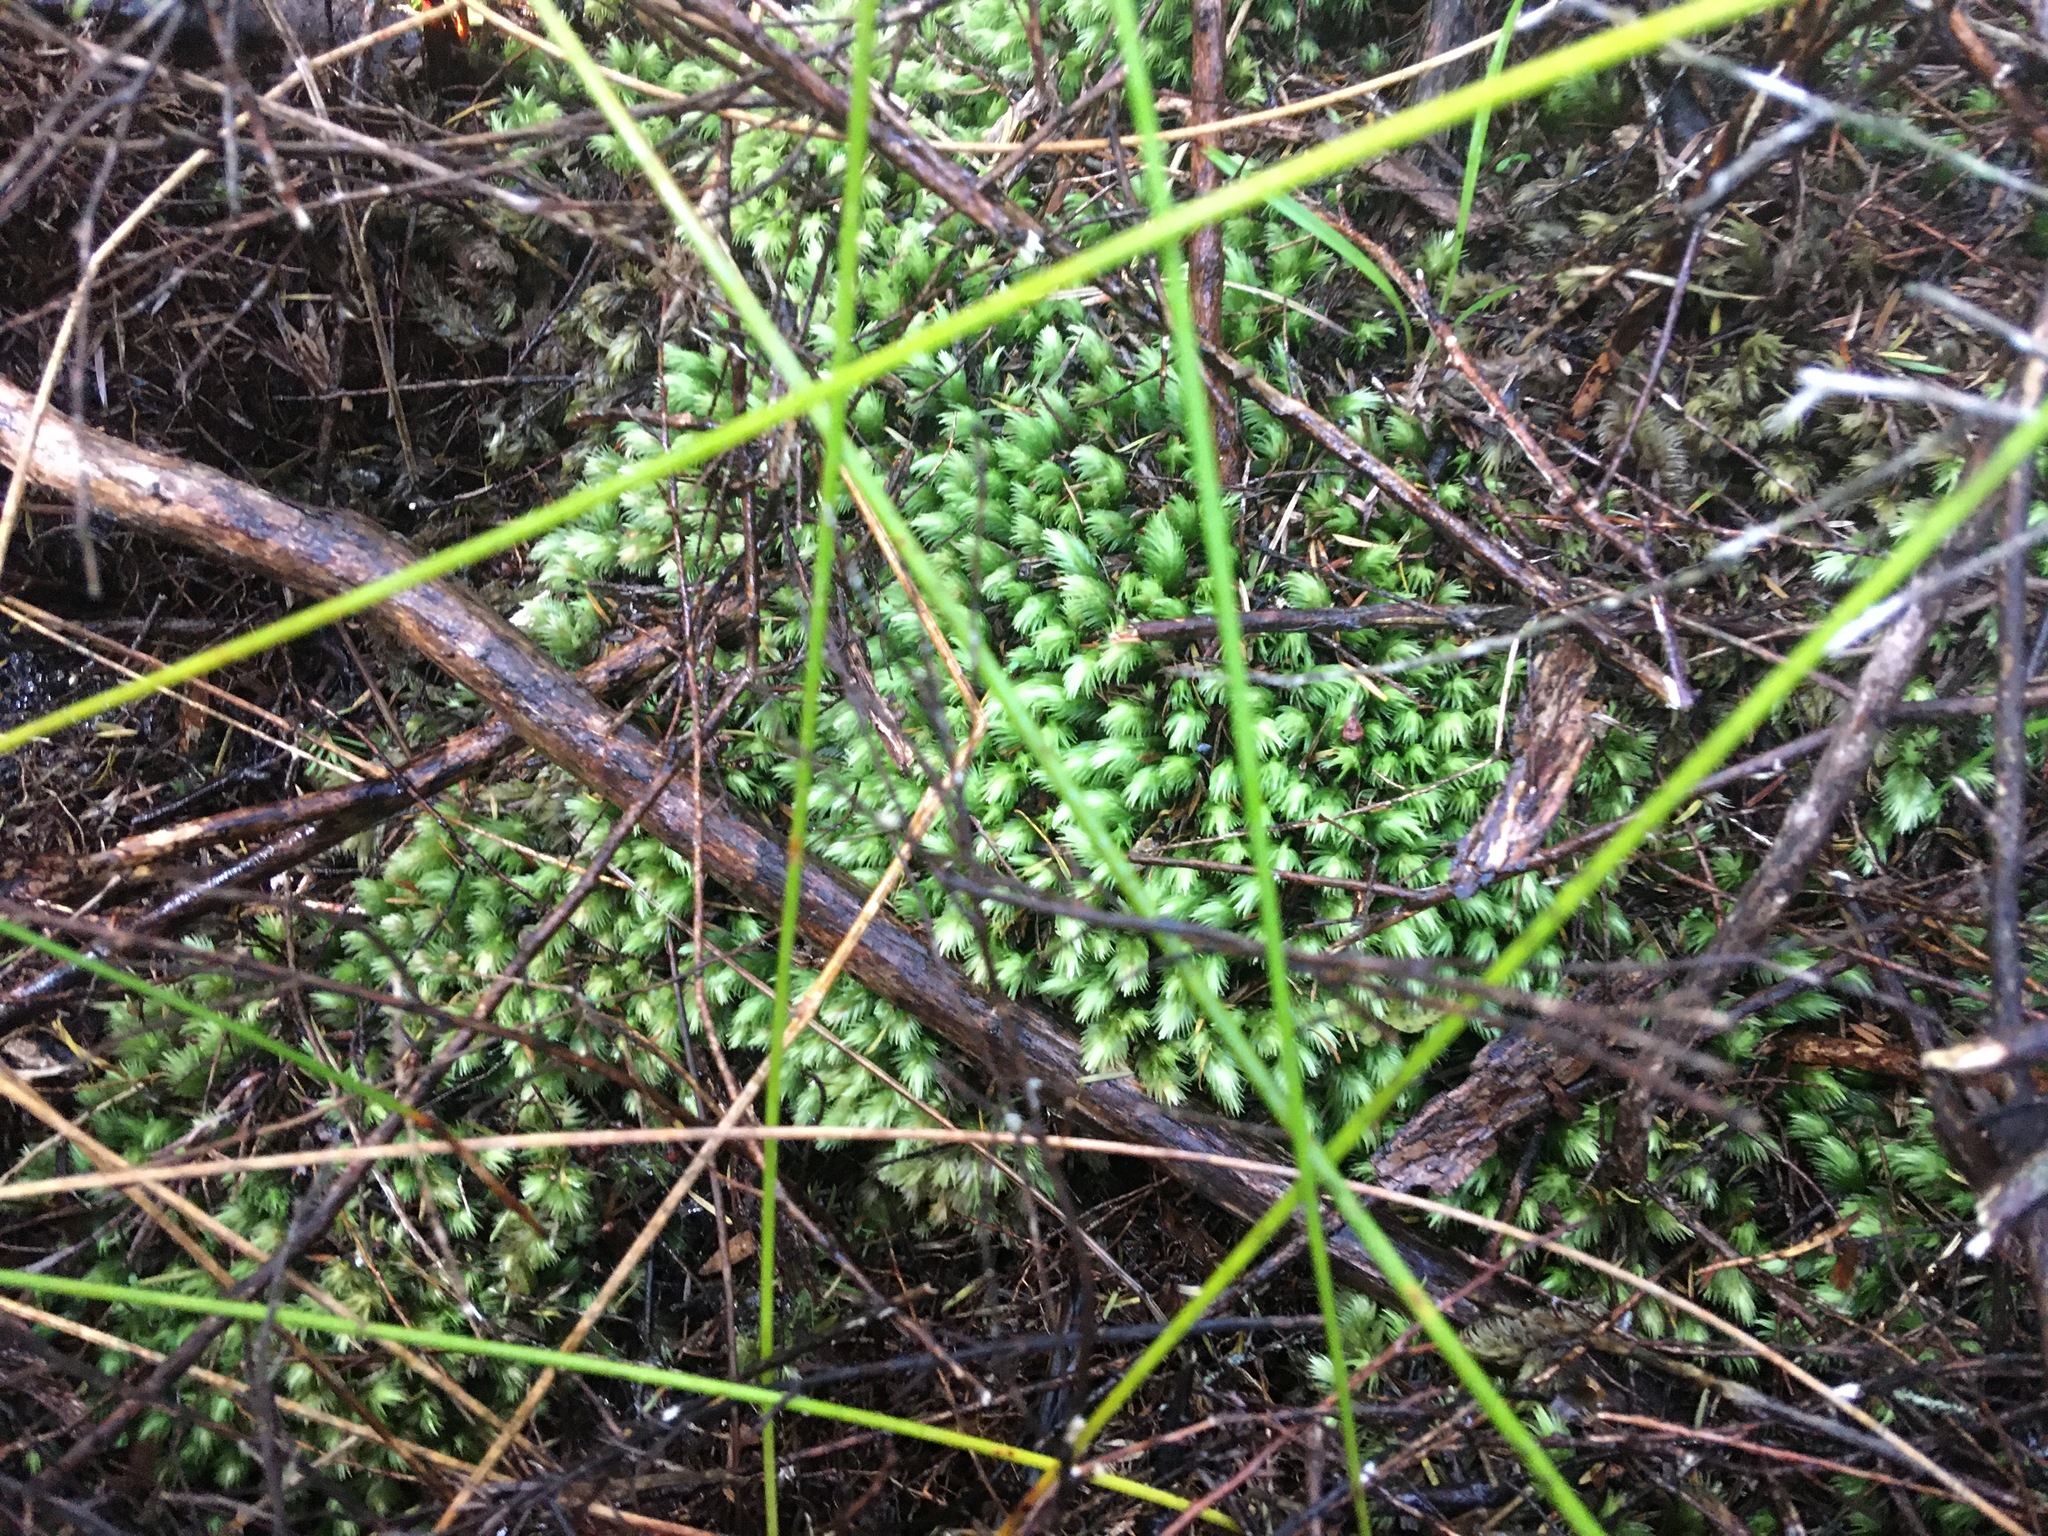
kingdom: Plantae
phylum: Bryophyta
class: Bryopsida
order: Dicranales
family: Leucobryaceae
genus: Leucobryum
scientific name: Leucobryum javense
